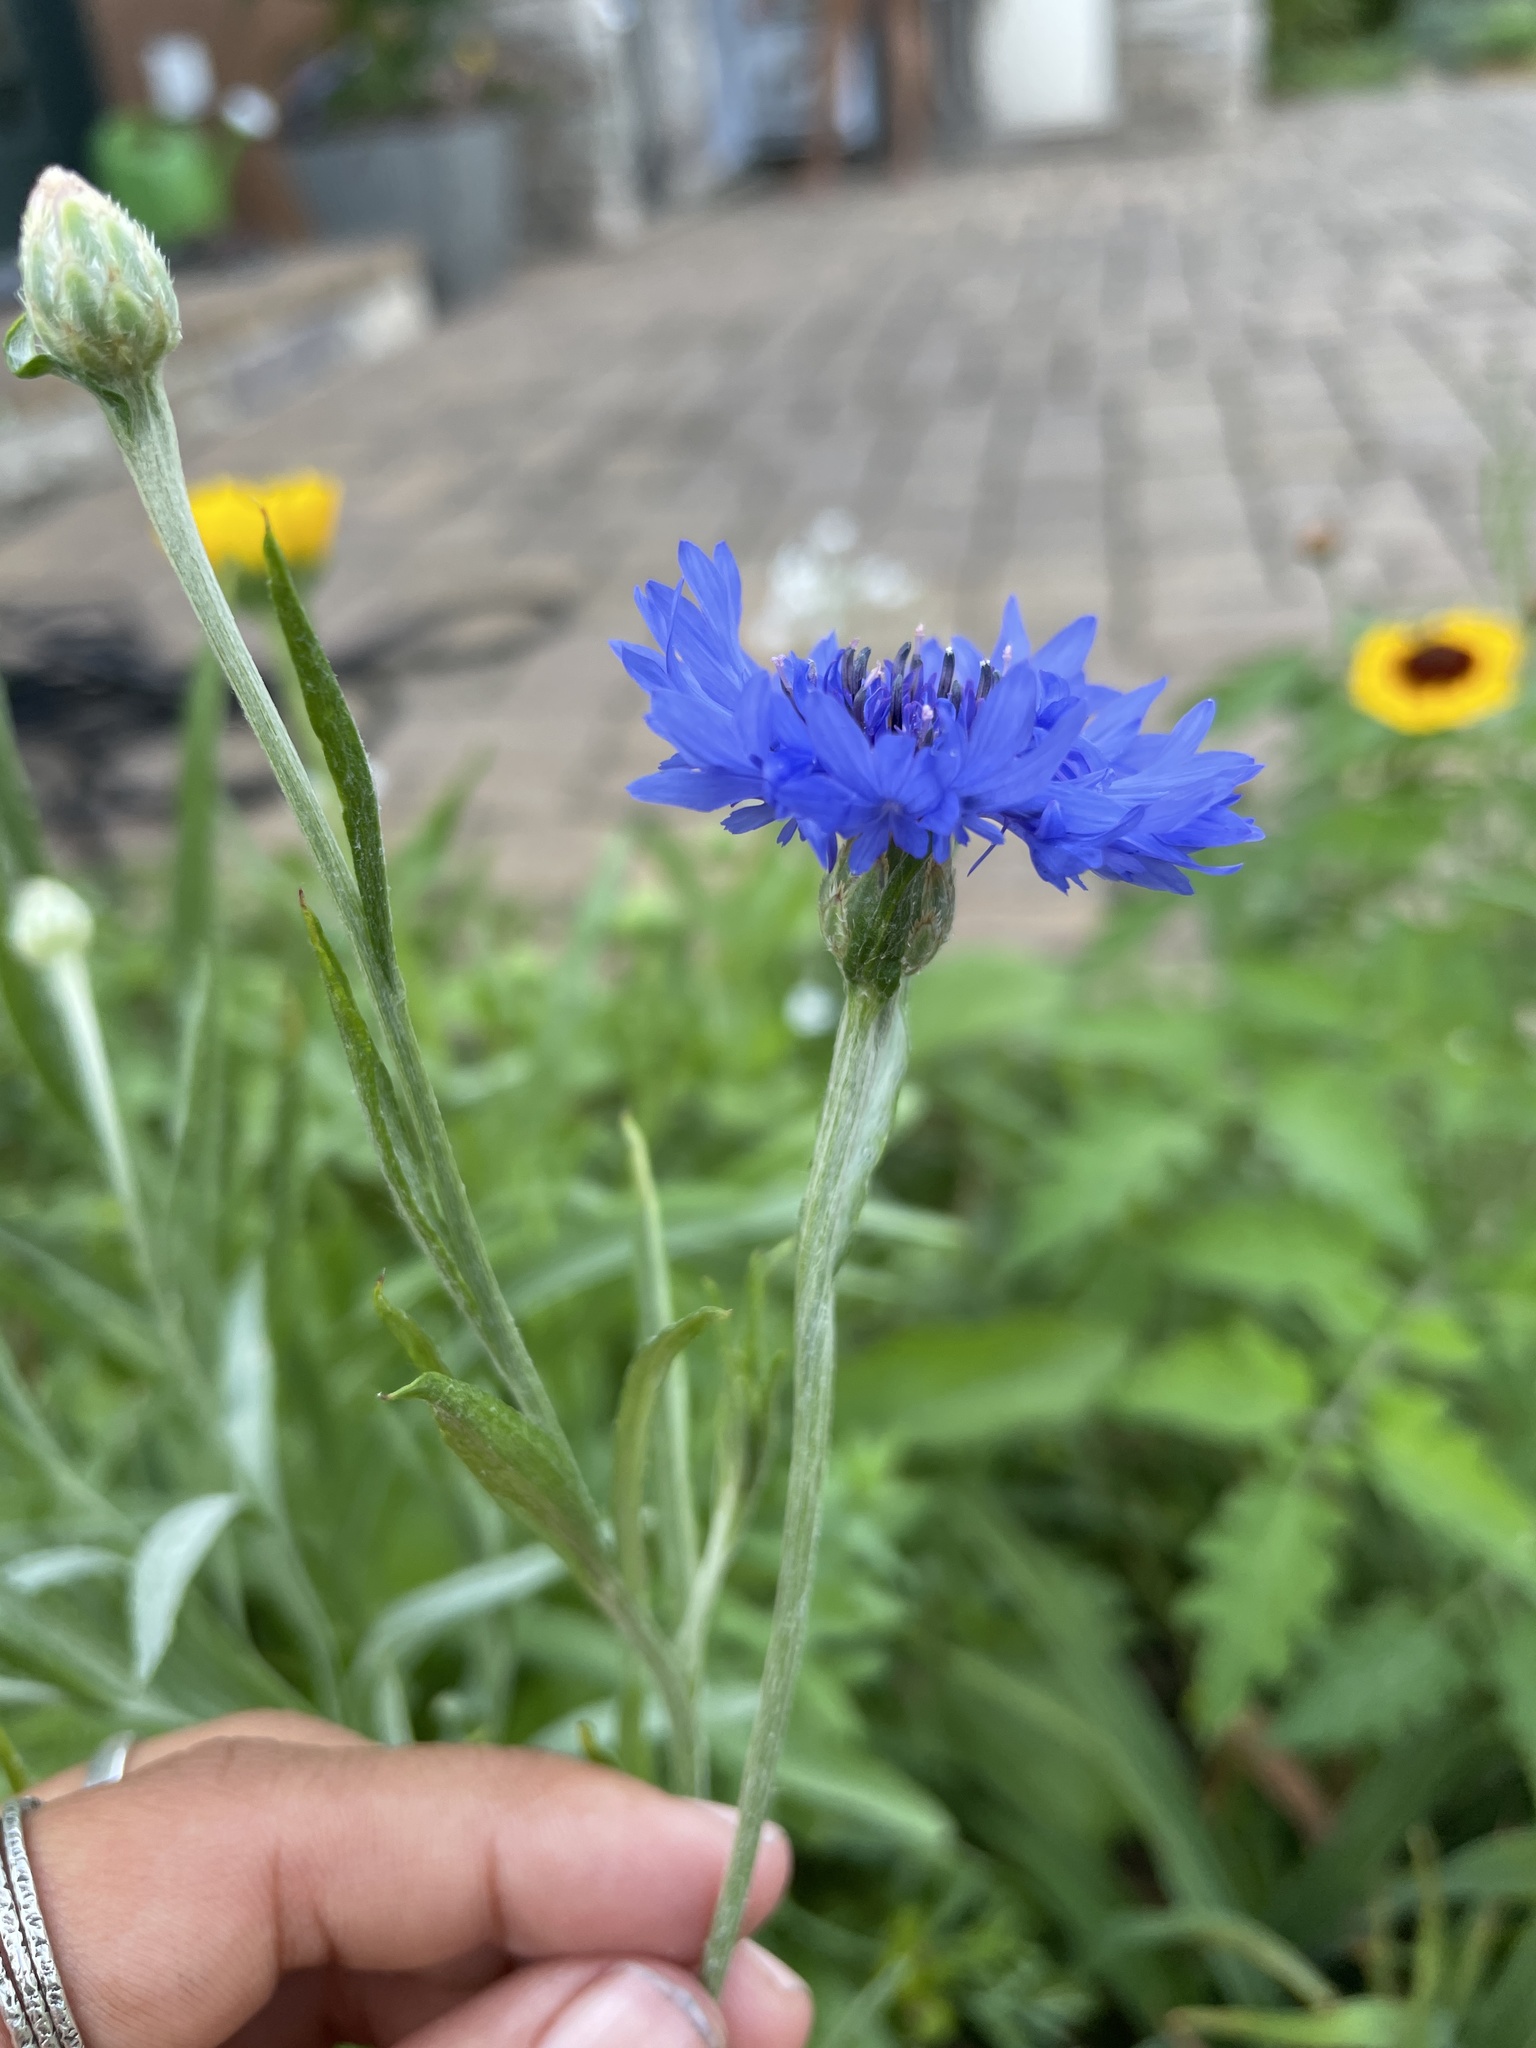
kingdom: Plantae
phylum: Tracheophyta
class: Magnoliopsida
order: Asterales
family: Asteraceae
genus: Centaurea
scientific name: Centaurea cyanus
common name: Cornflower
